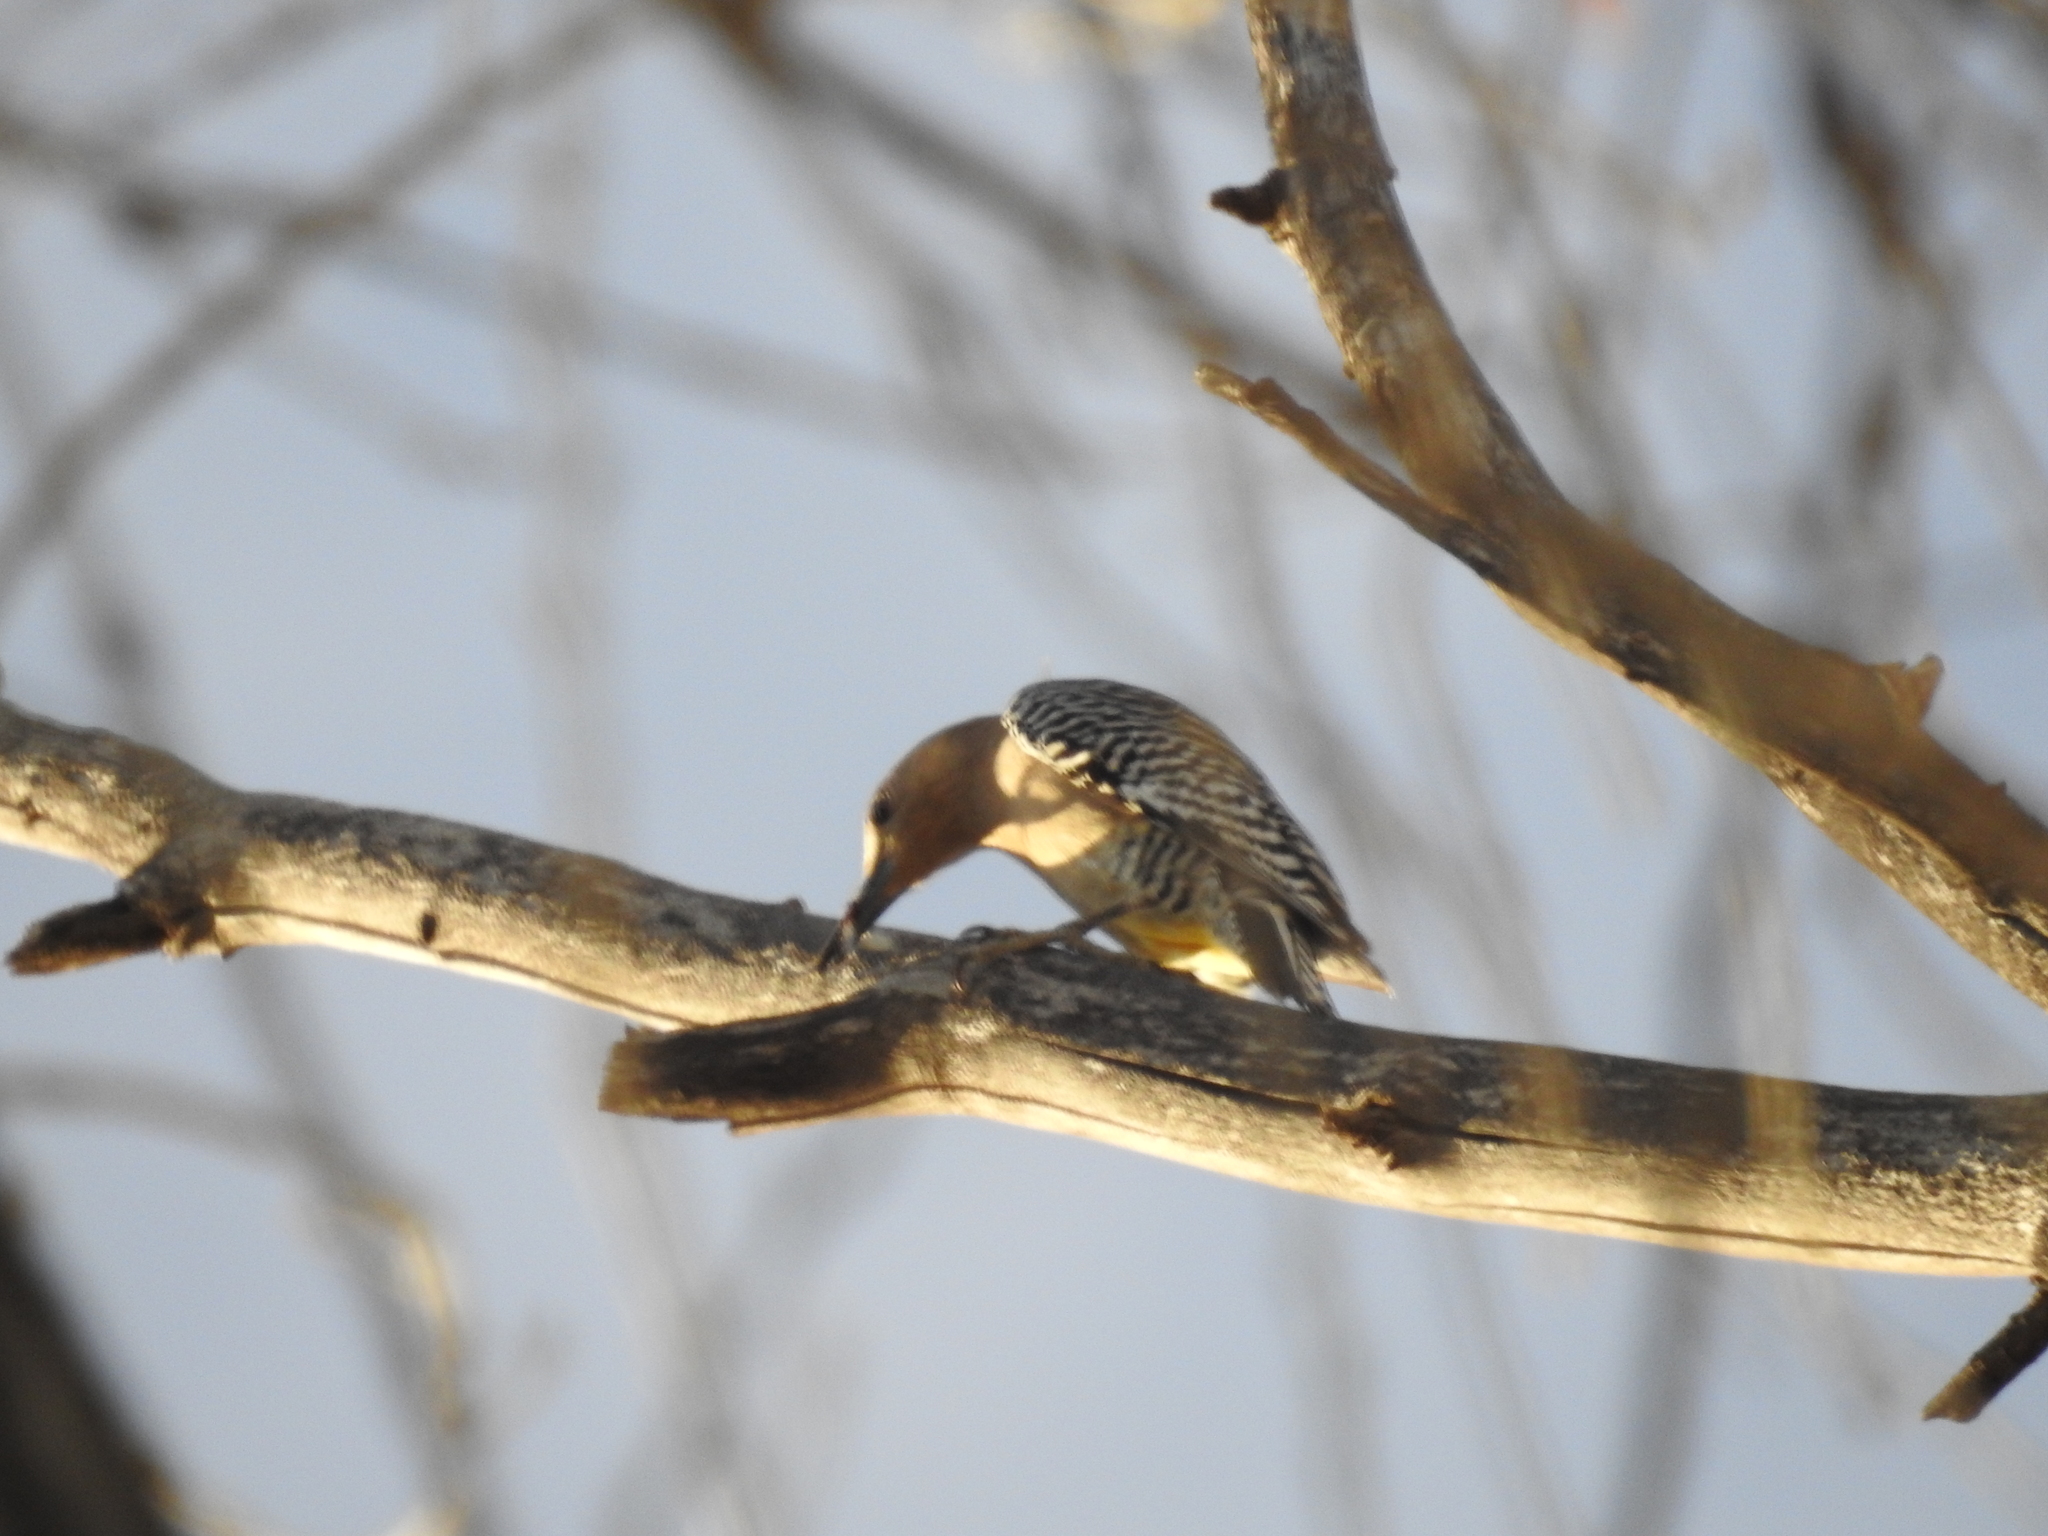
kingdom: Animalia
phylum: Chordata
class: Aves
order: Piciformes
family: Picidae
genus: Melanerpes
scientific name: Melanerpes uropygialis
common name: Gila woodpecker
